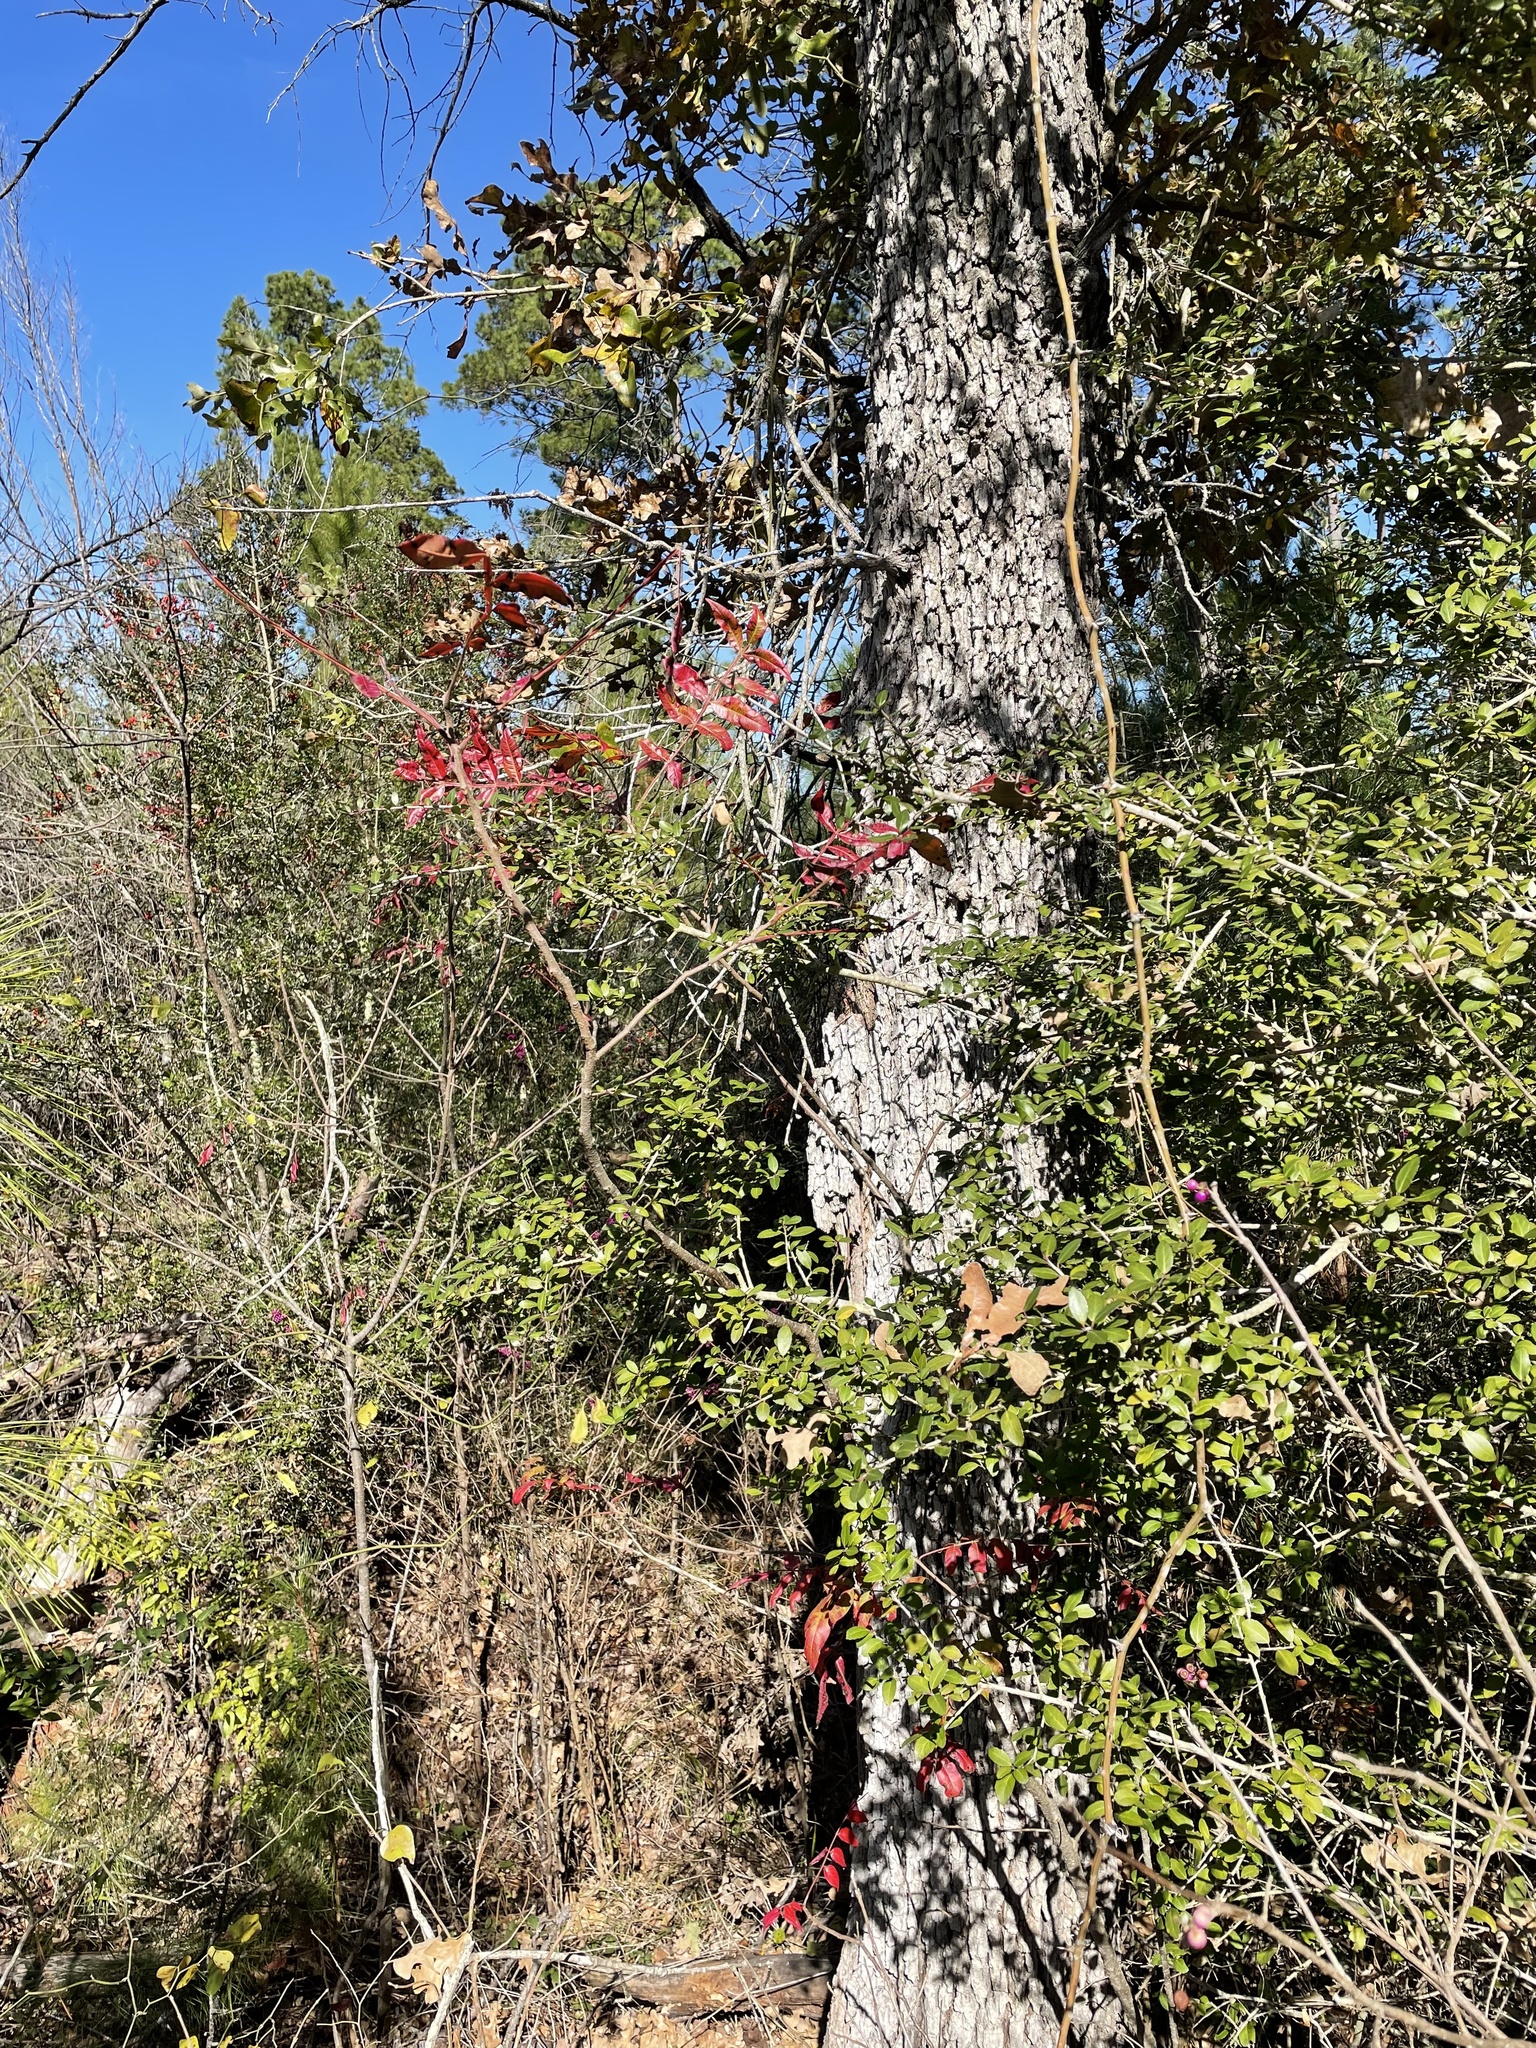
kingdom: Plantae
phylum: Tracheophyta
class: Magnoliopsida
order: Sapindales
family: Anacardiaceae
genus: Rhus
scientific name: Rhus copallina
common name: Shining sumac
